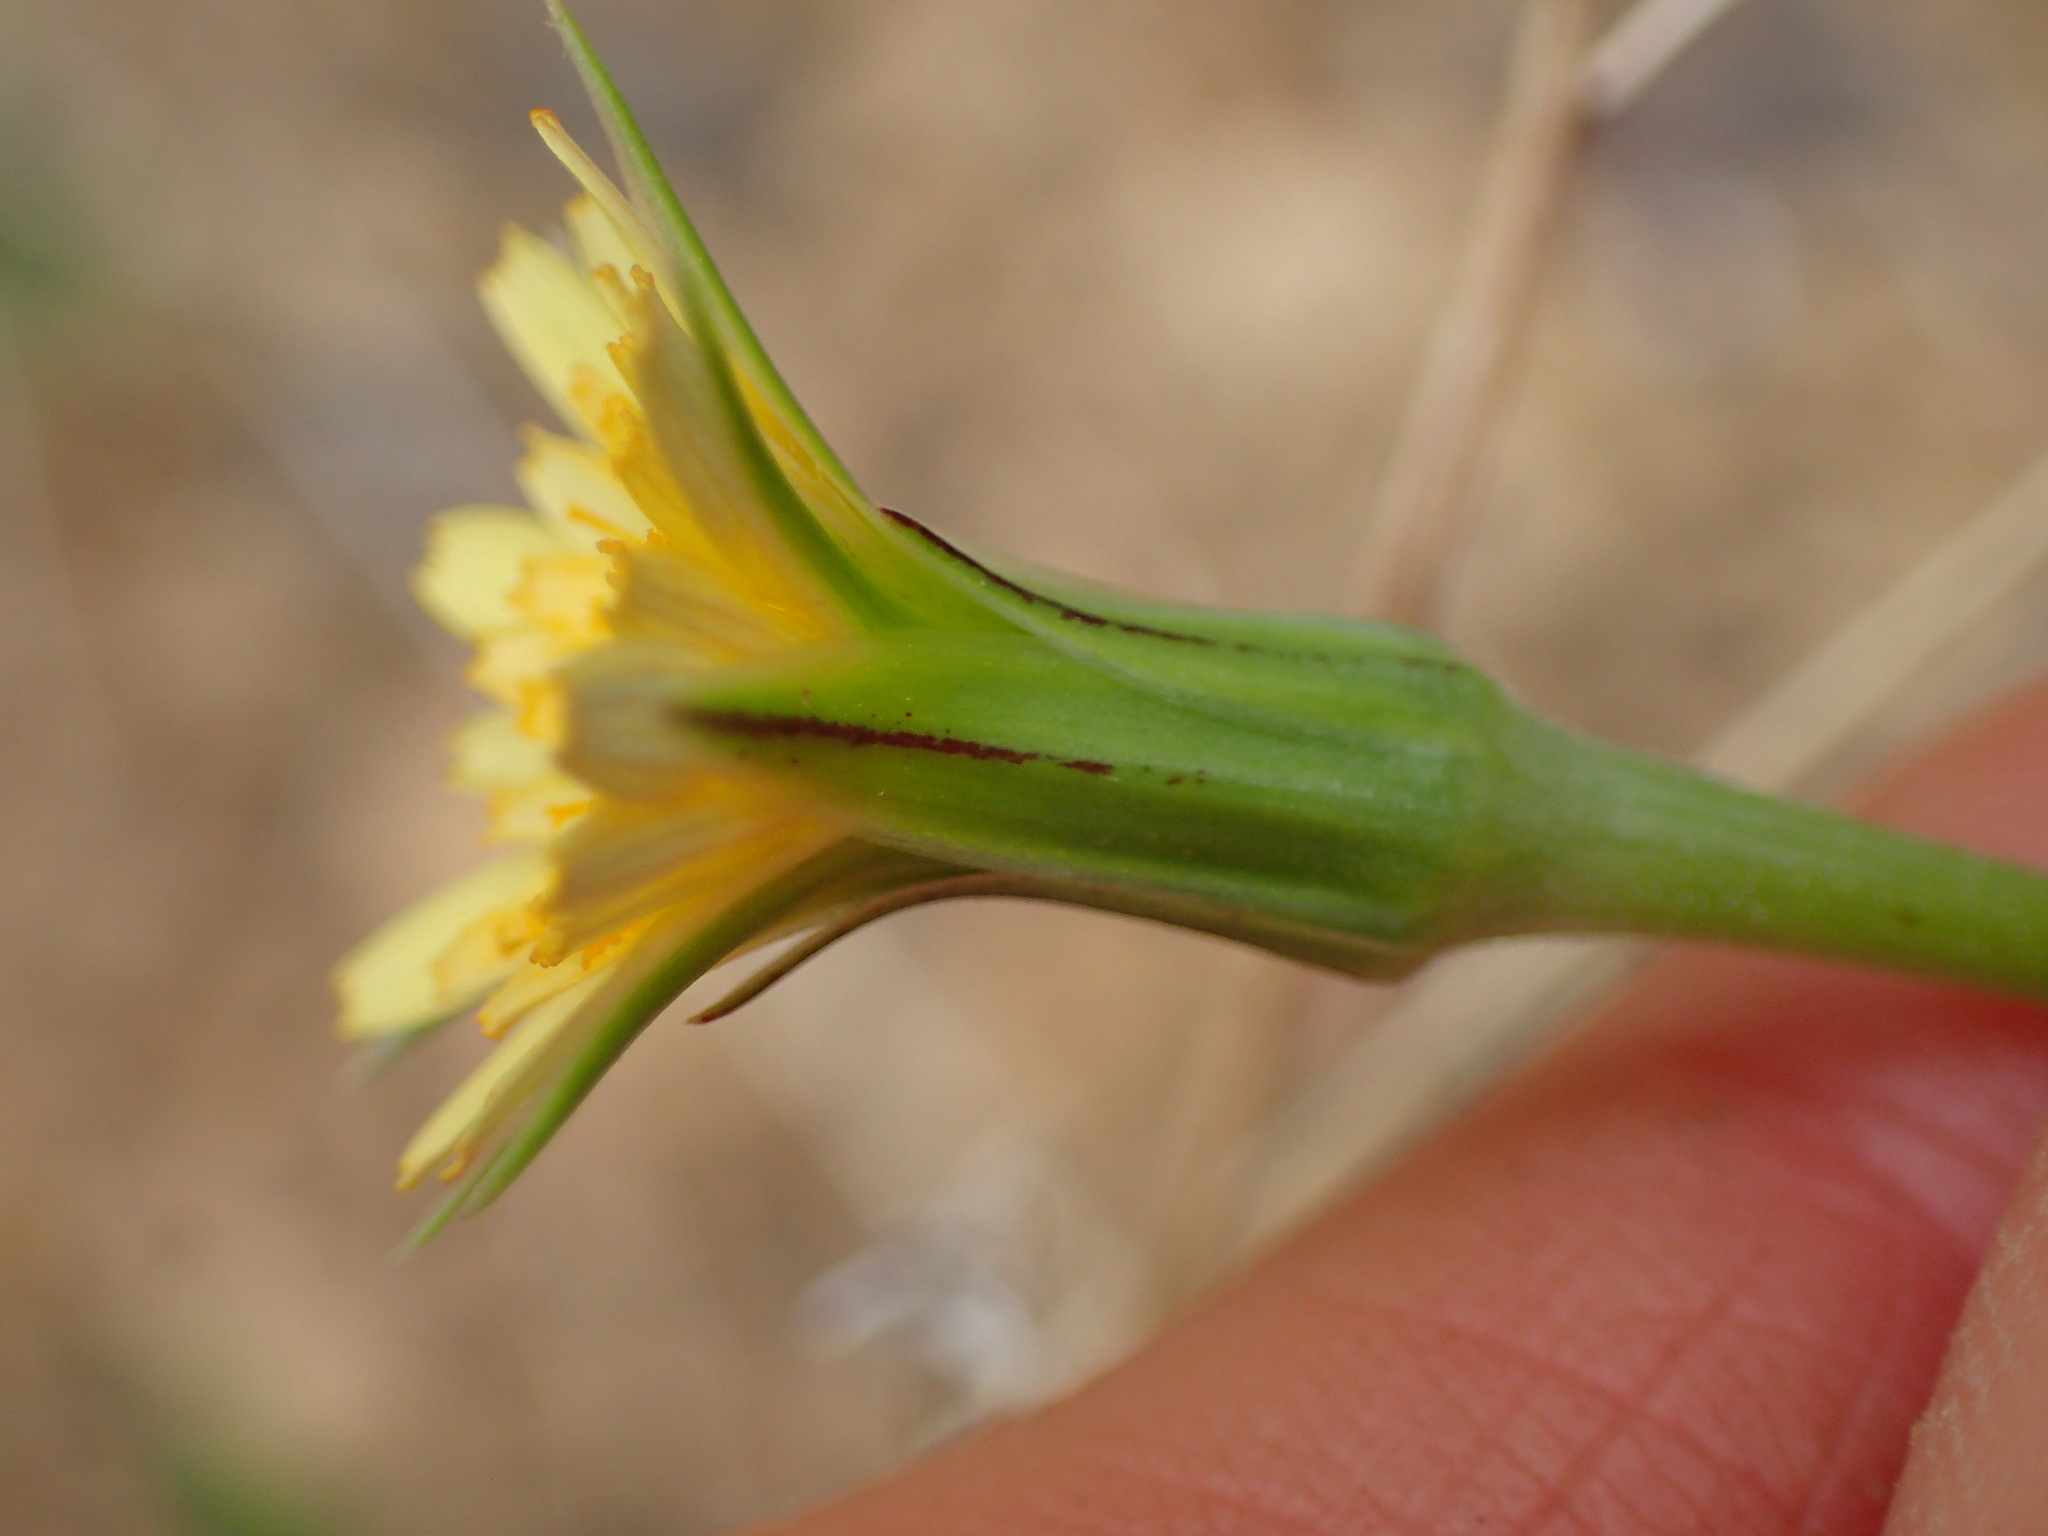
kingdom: Plantae
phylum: Tracheophyta
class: Magnoliopsida
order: Asterales
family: Asteraceae
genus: Microseris
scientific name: Microseris lindleyi
